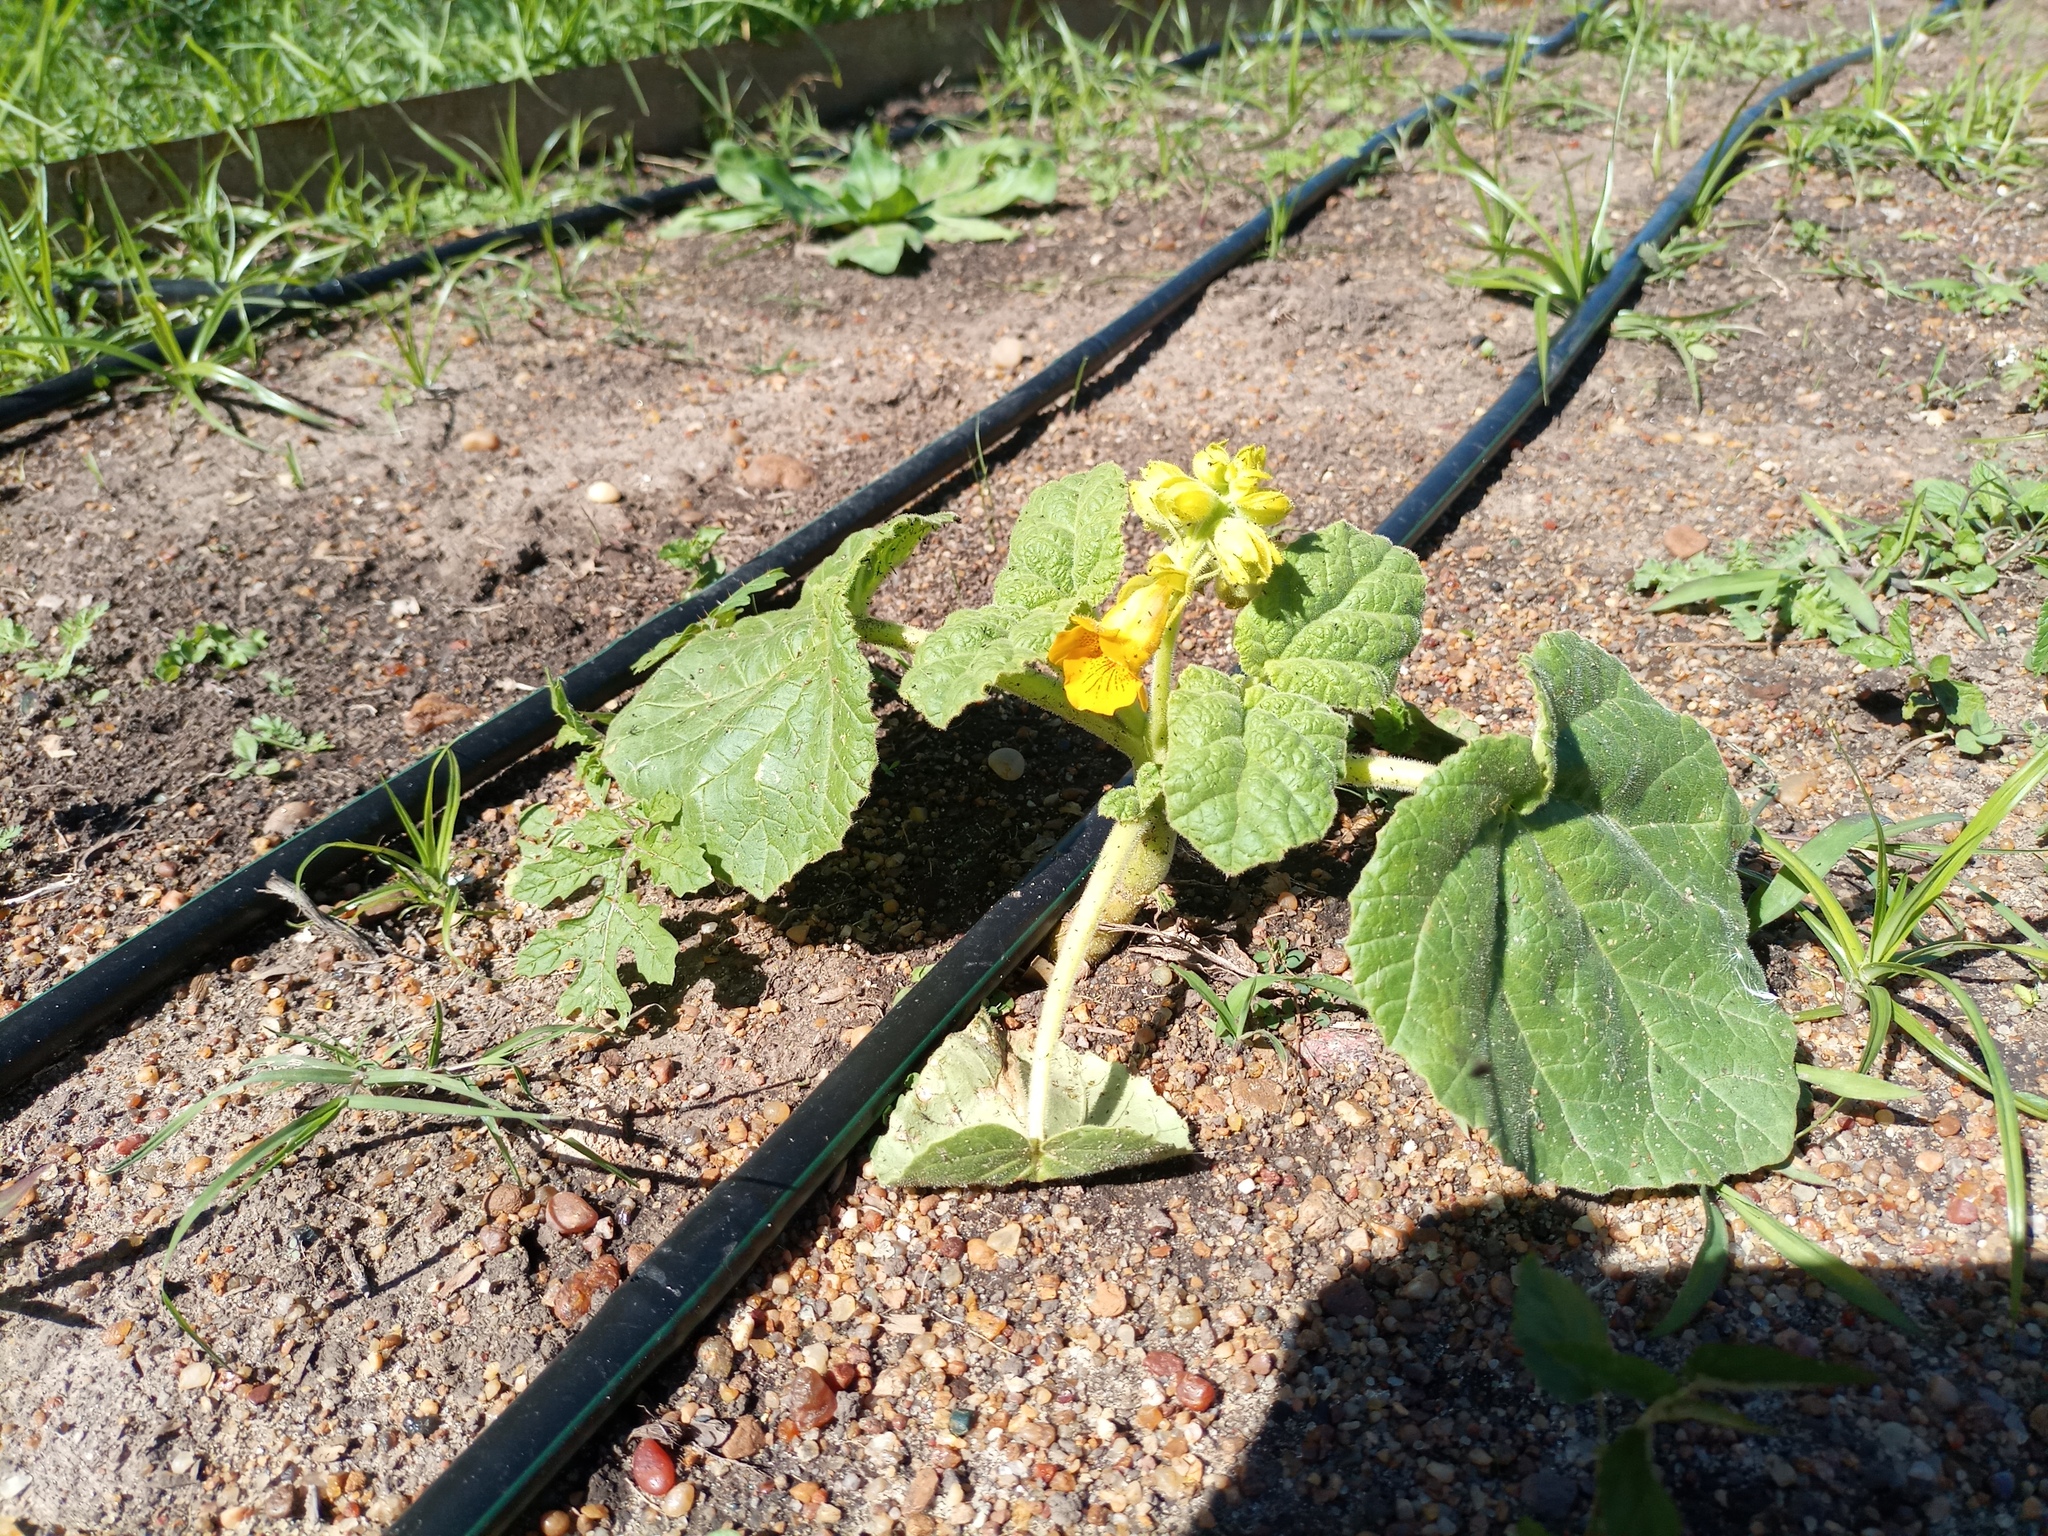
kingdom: Plantae
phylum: Tracheophyta
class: Magnoliopsida
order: Lamiales
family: Martyniaceae
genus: Ibicella
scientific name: Ibicella lutea
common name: Yellow unicorn-plant
